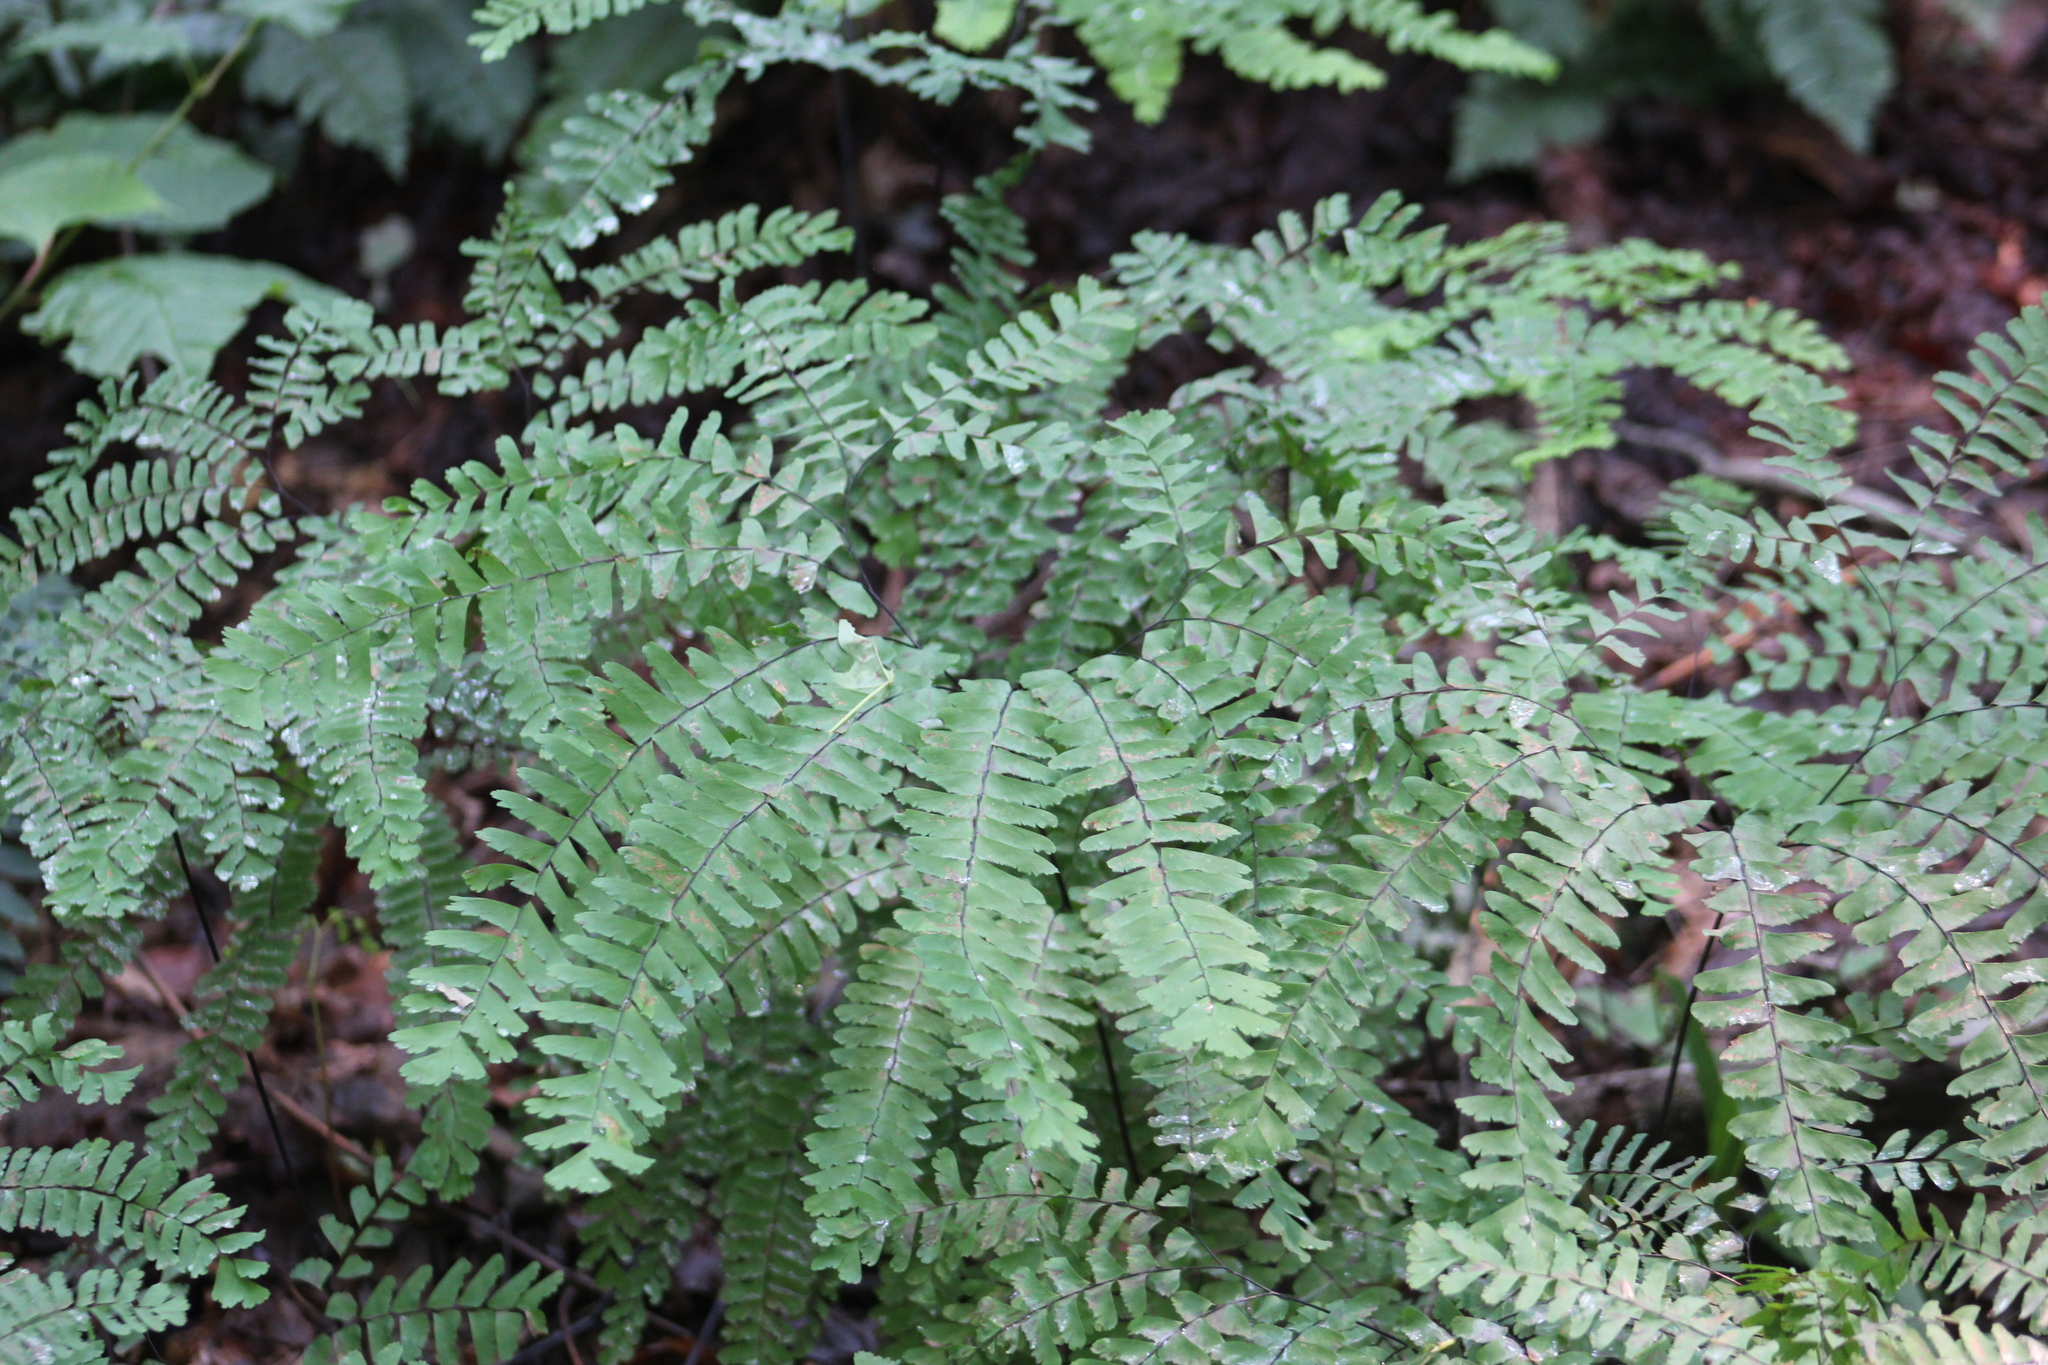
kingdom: Plantae
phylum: Tracheophyta
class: Polypodiopsida
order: Polypodiales
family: Pteridaceae
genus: Adiantum
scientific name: Adiantum pedatum
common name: Five-finger fern
